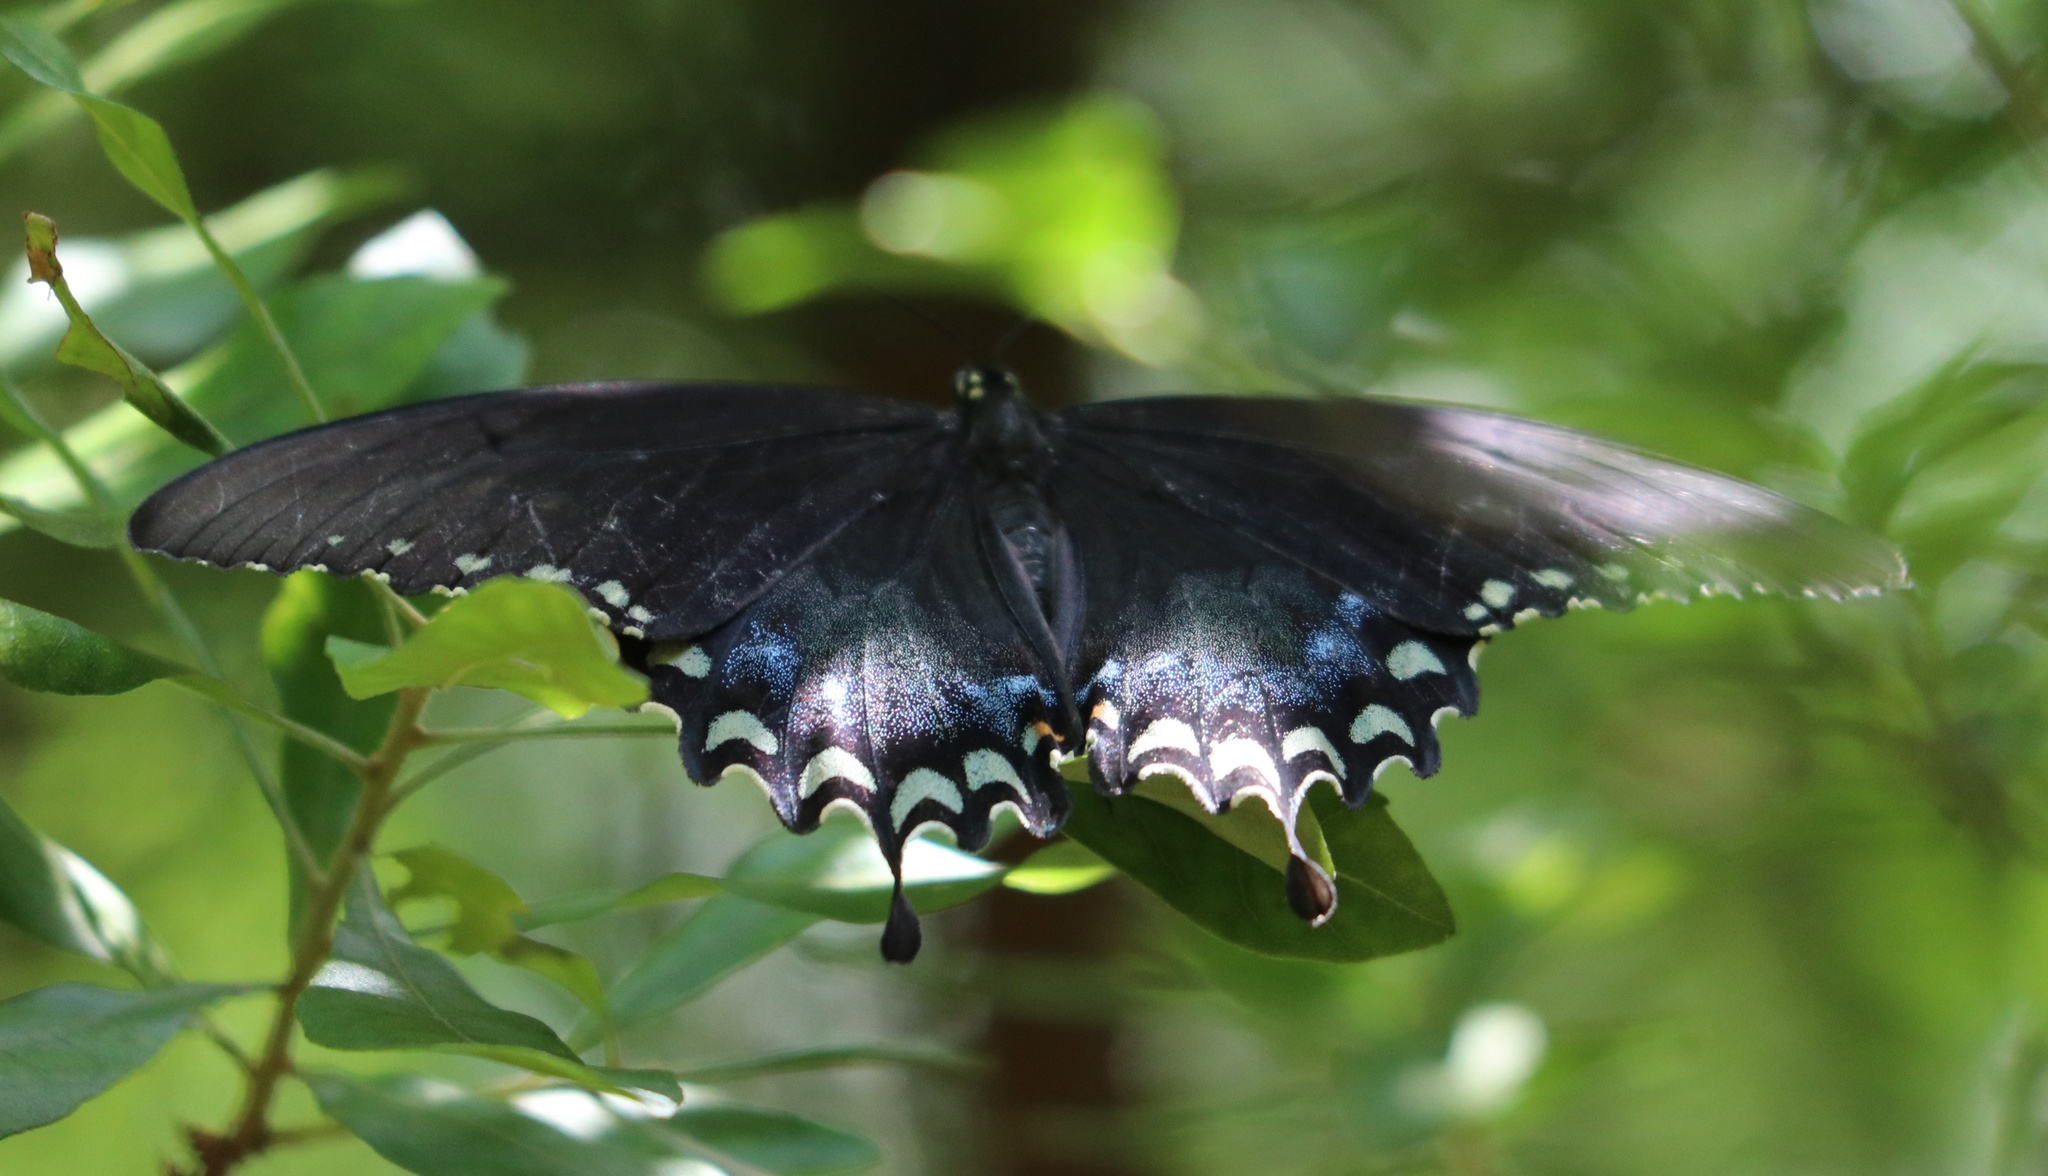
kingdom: Animalia
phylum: Arthropoda
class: Insecta
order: Lepidoptera
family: Papilionidae
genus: Papilio
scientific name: Papilio troilus
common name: Spicebush swallowtail
